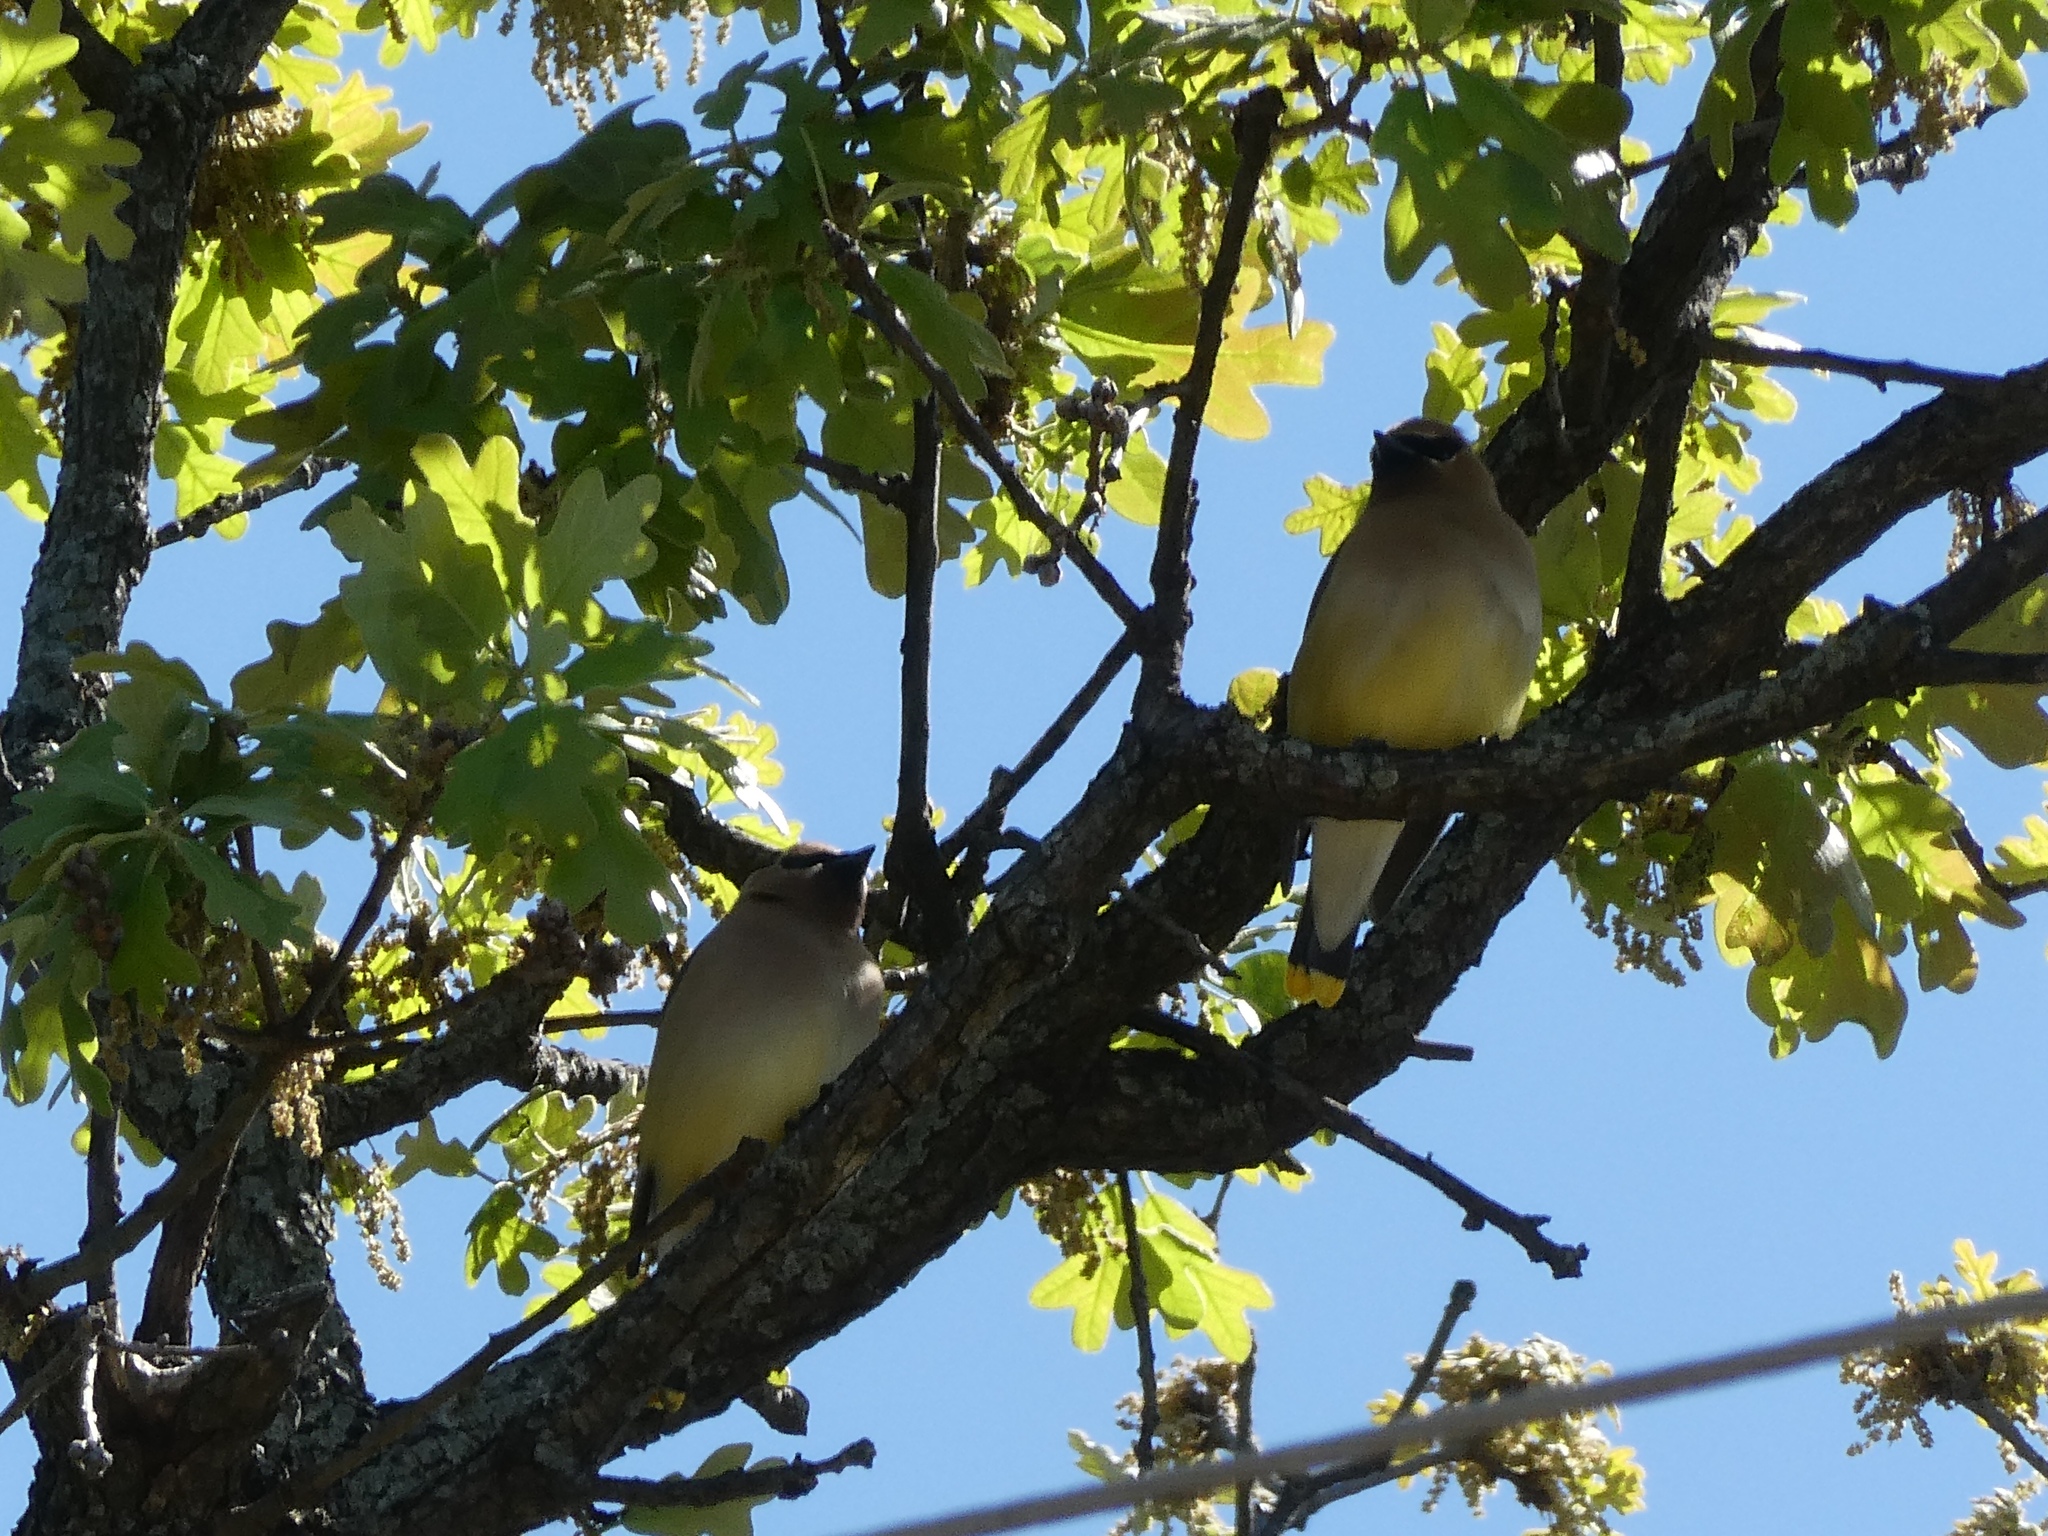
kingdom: Animalia
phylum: Chordata
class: Aves
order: Passeriformes
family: Bombycillidae
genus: Bombycilla
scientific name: Bombycilla cedrorum
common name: Cedar waxwing
